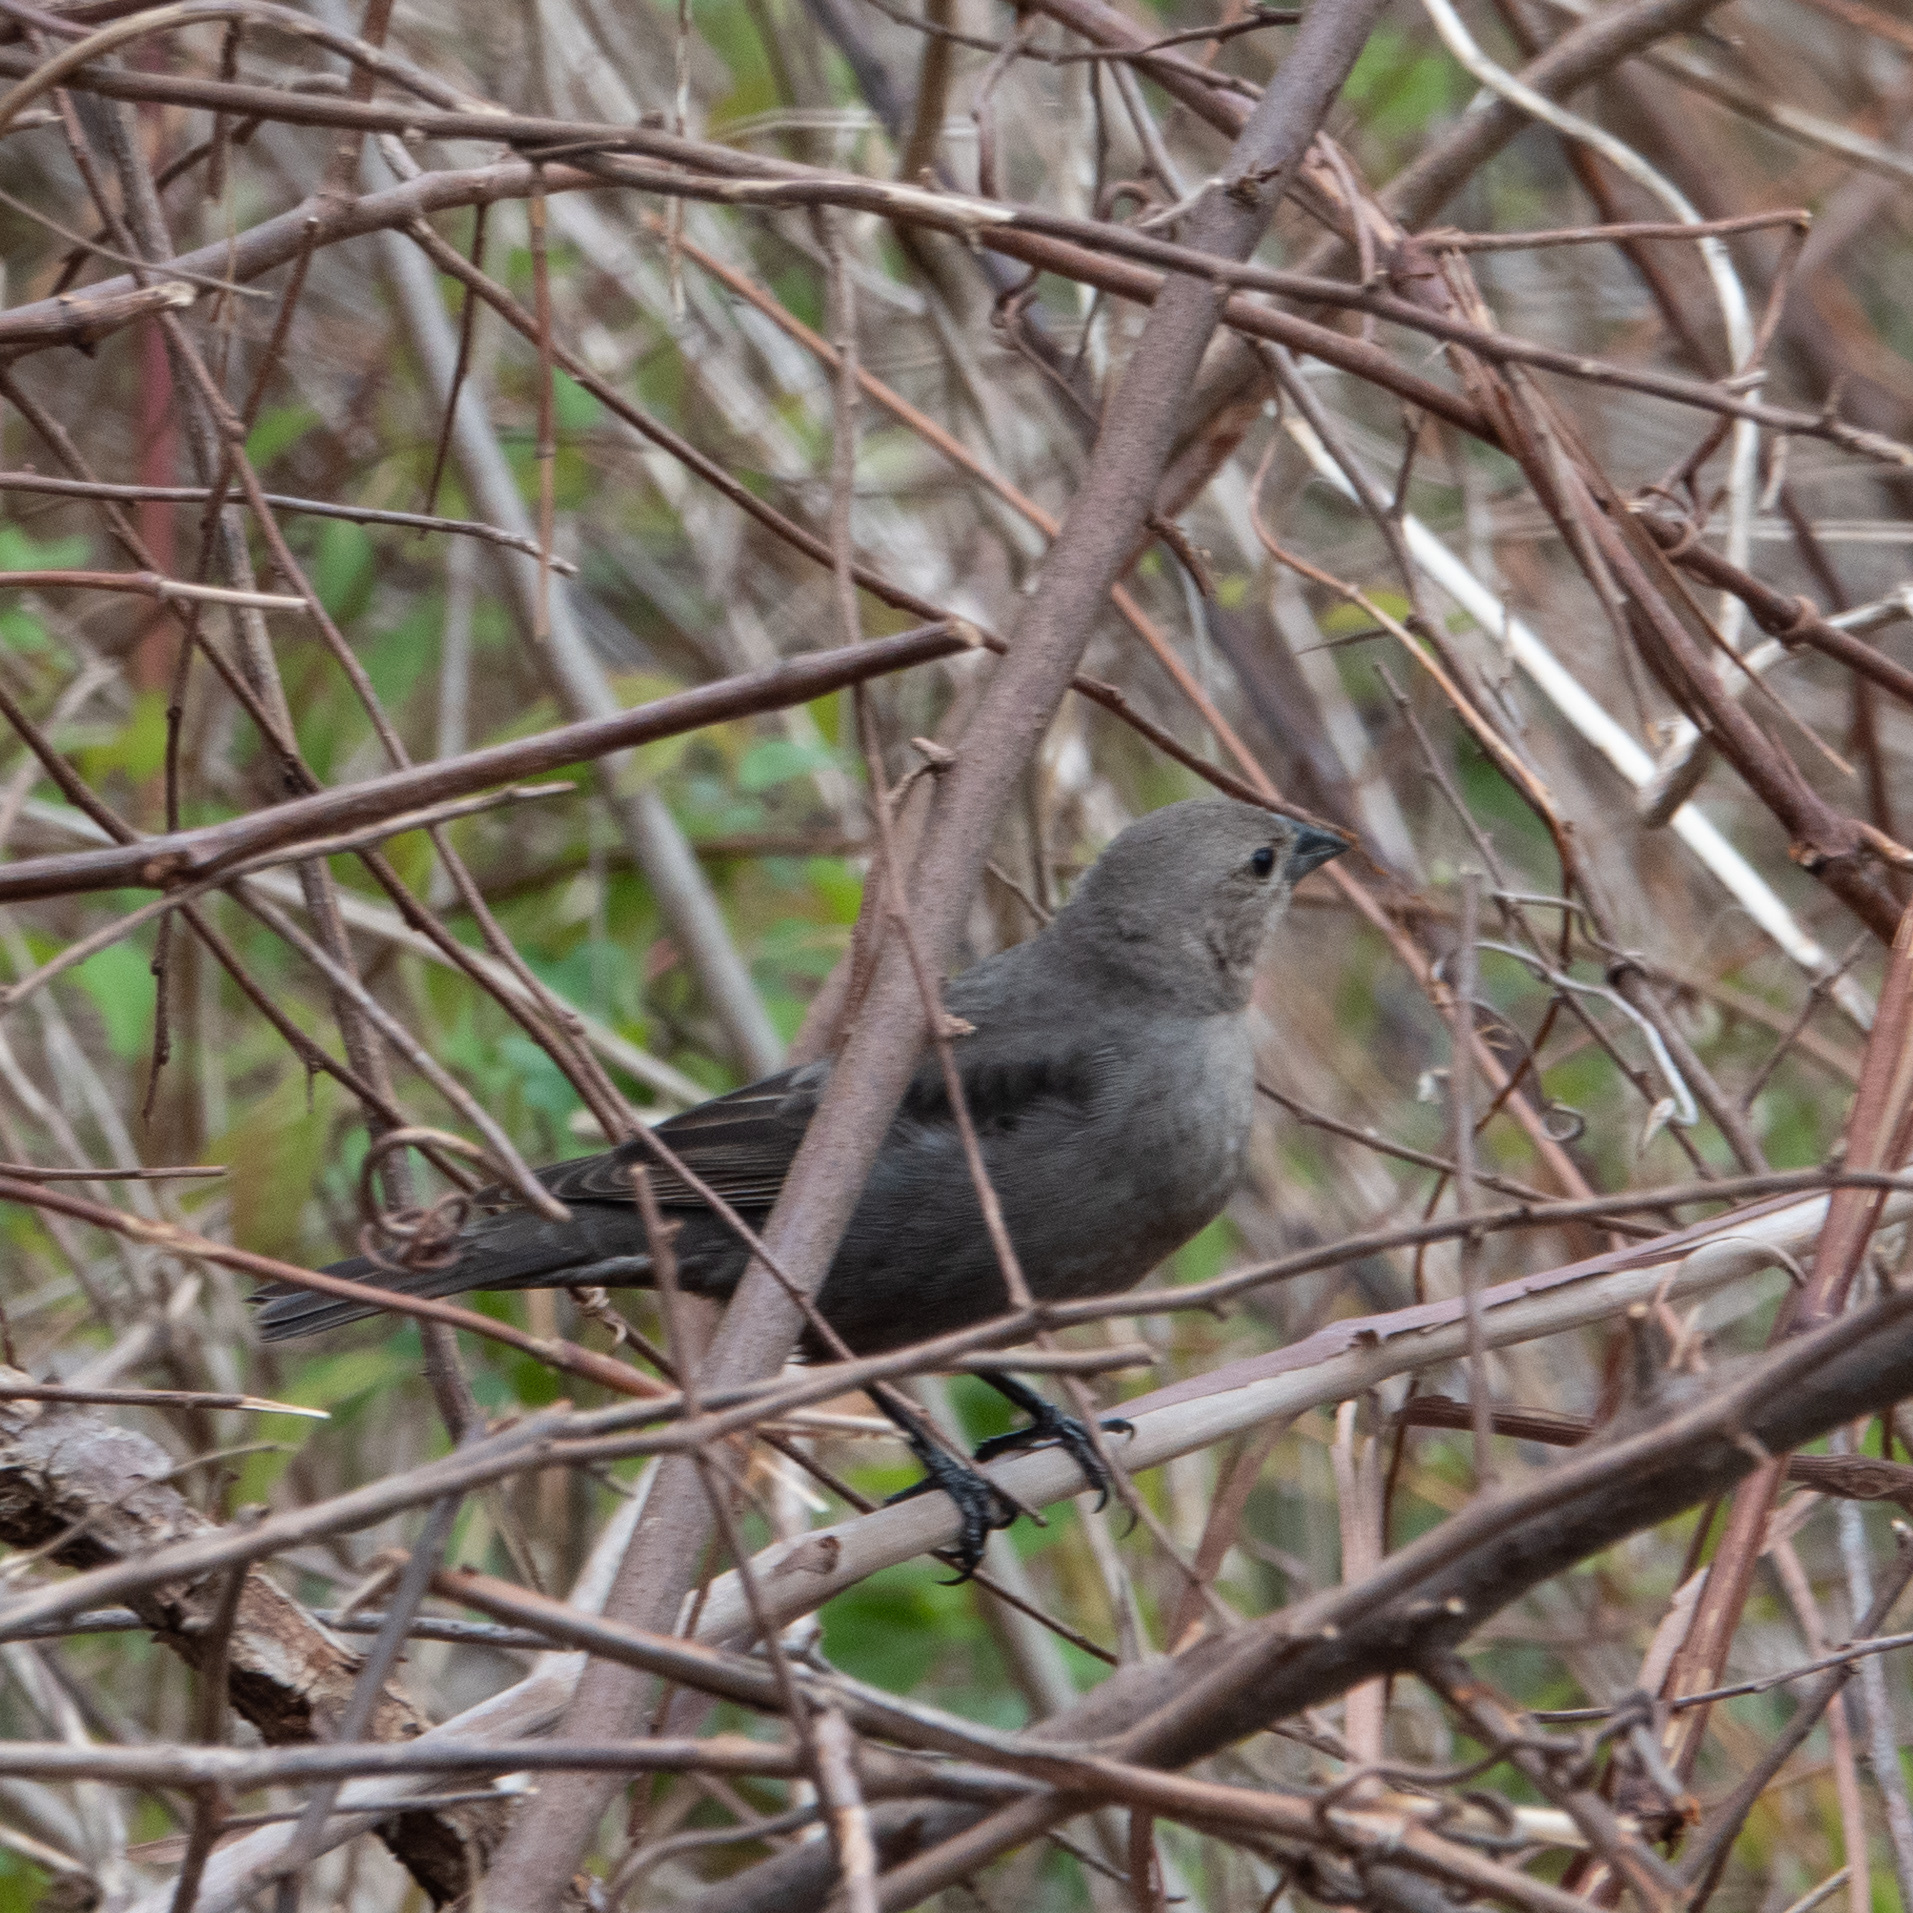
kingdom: Animalia
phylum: Chordata
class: Aves
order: Passeriformes
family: Icteridae
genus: Molothrus
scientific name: Molothrus ater
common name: Brown-headed cowbird
